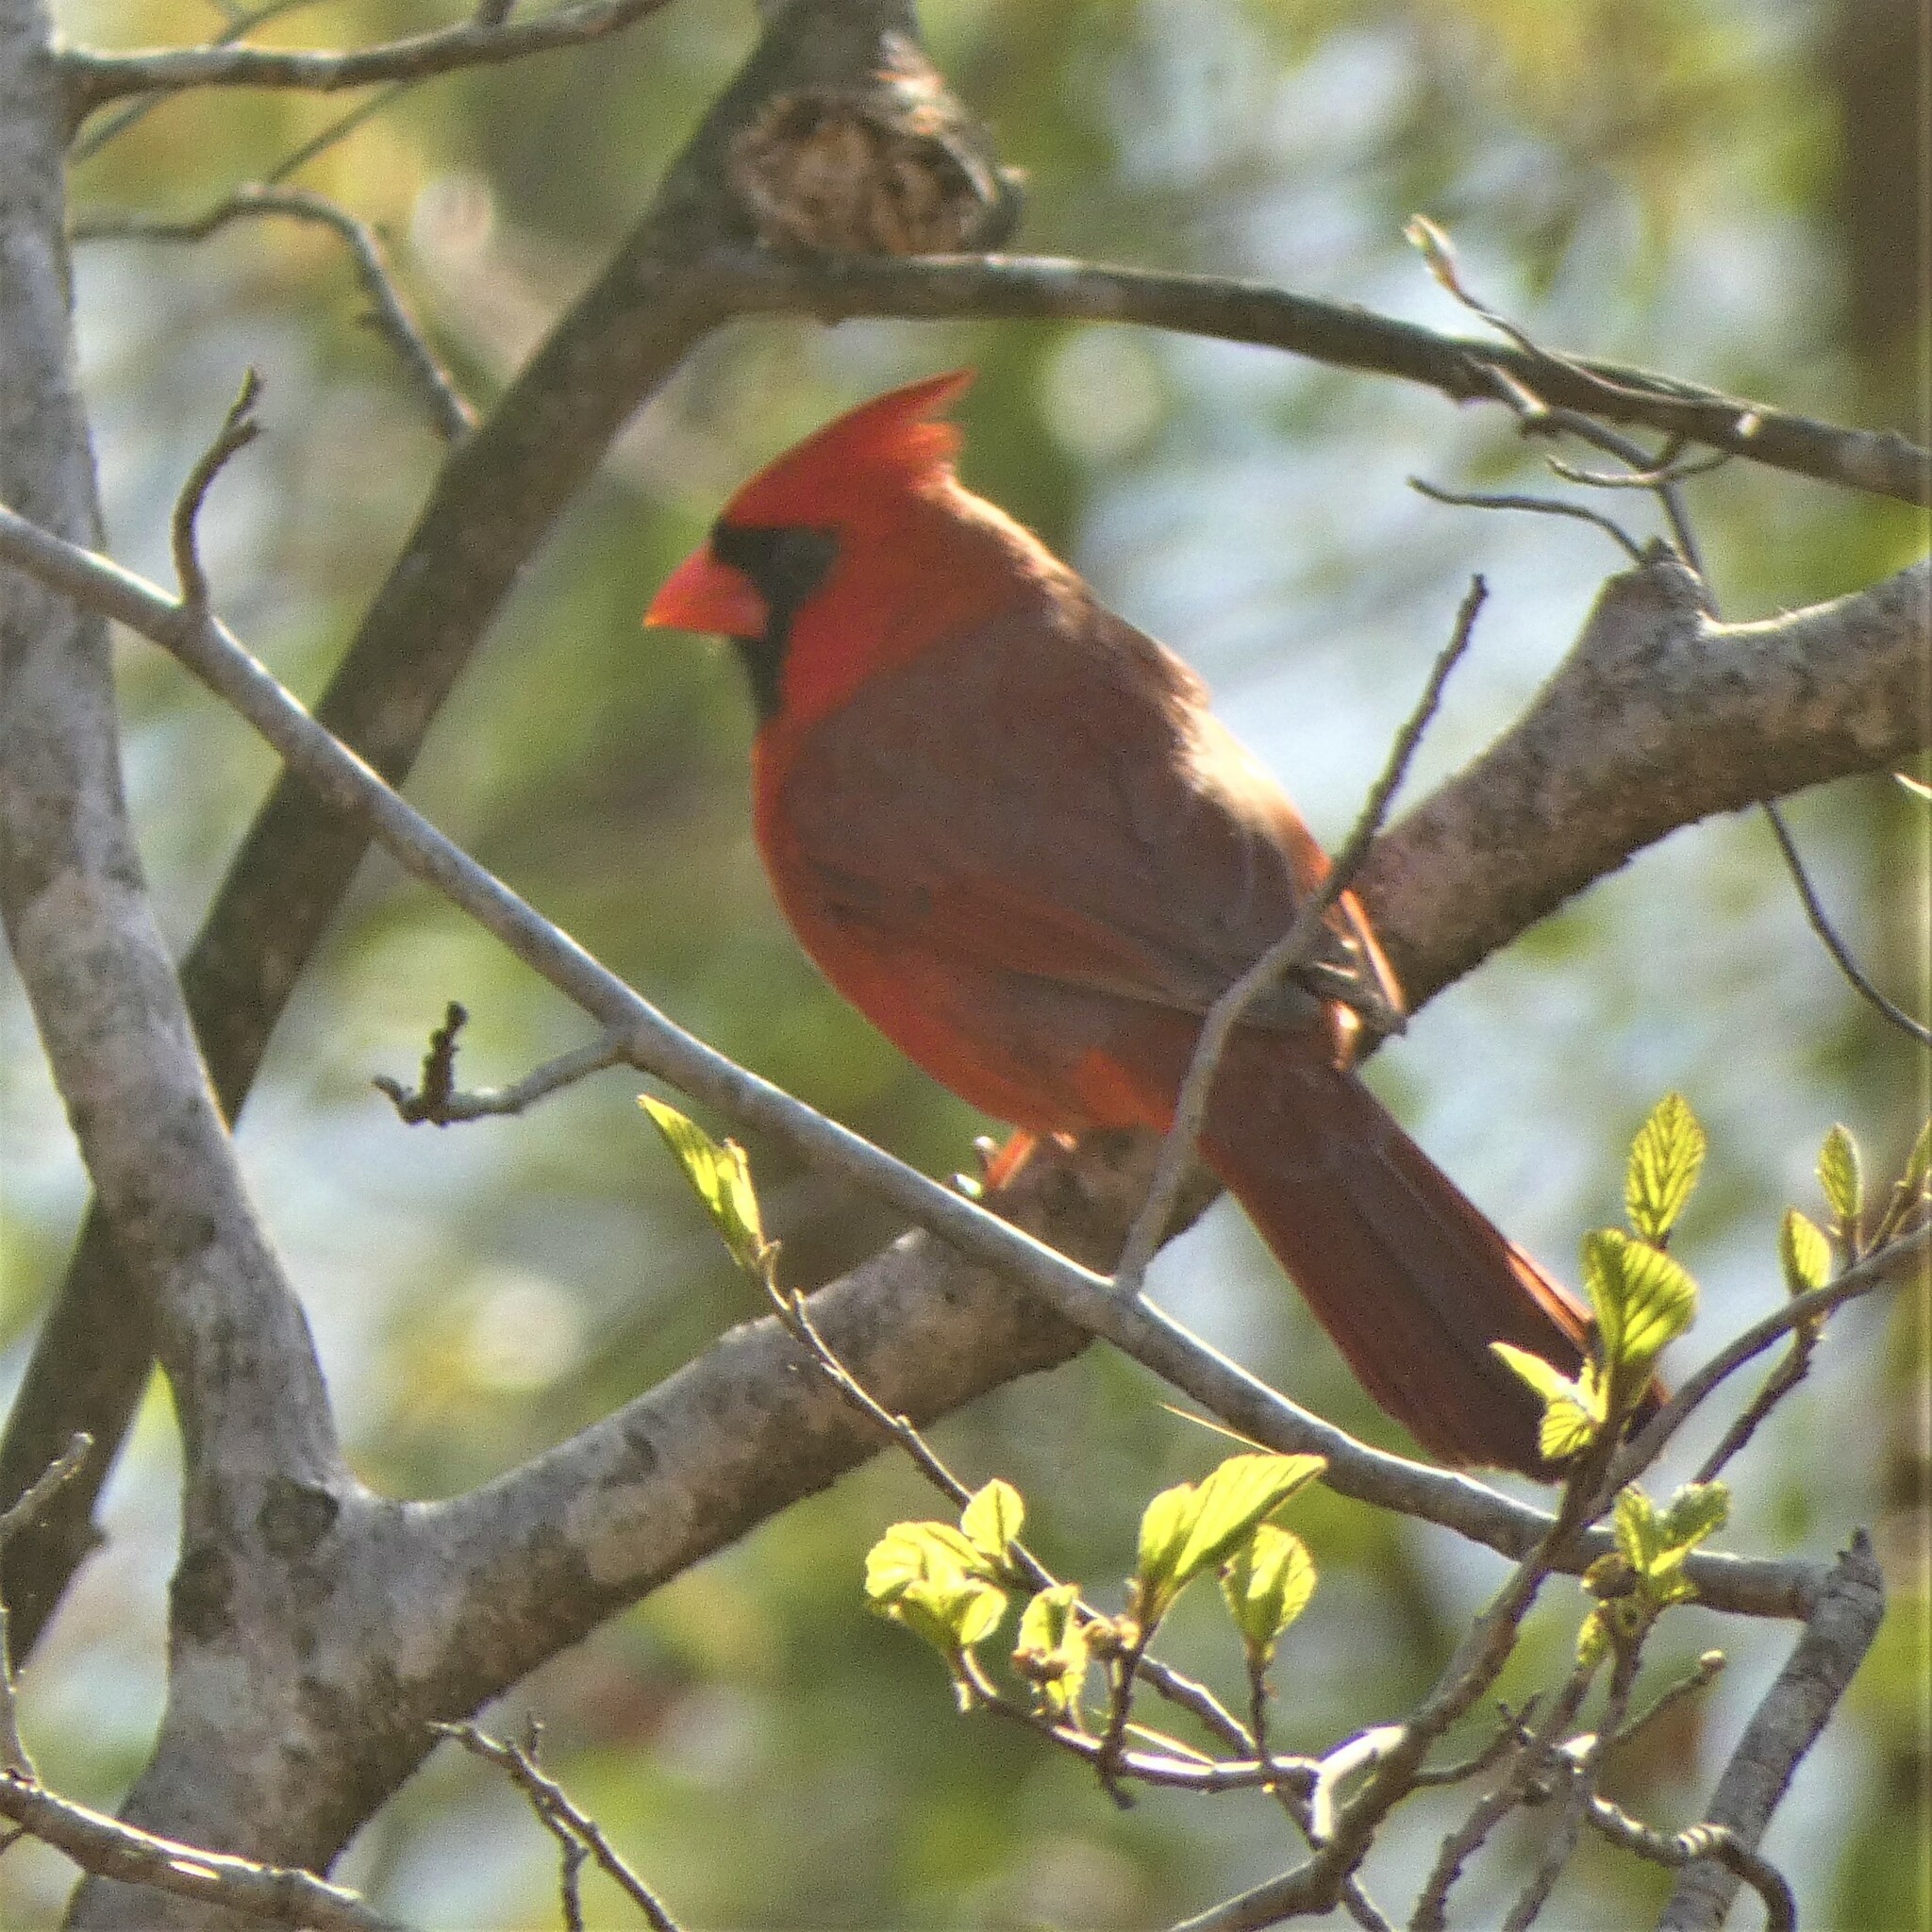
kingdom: Animalia
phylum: Chordata
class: Aves
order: Passeriformes
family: Cardinalidae
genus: Cardinalis
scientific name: Cardinalis cardinalis
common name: Northern cardinal
